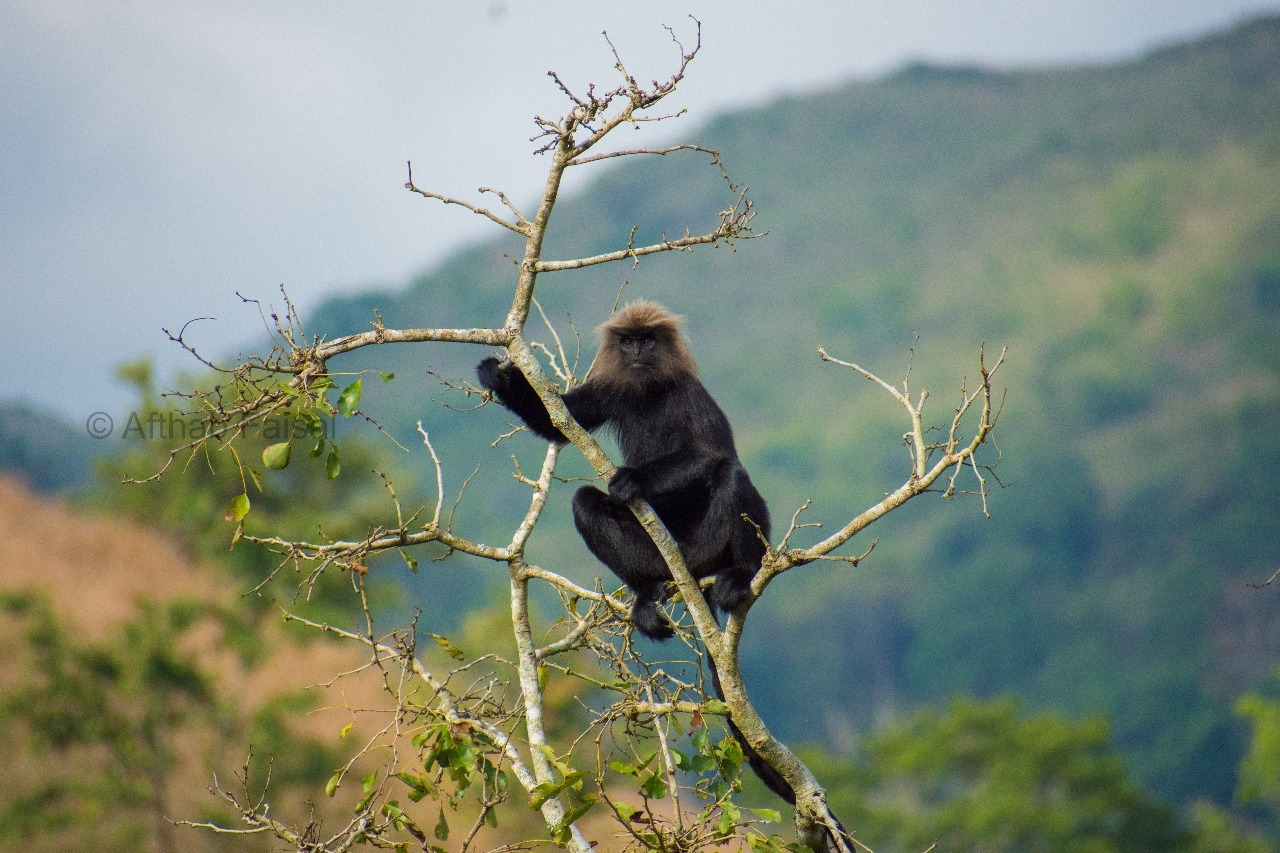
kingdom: Animalia
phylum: Chordata
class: Mammalia
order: Primates
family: Cercopithecidae
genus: Semnopithecus
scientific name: Semnopithecus johnii
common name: Nilgiri langur
